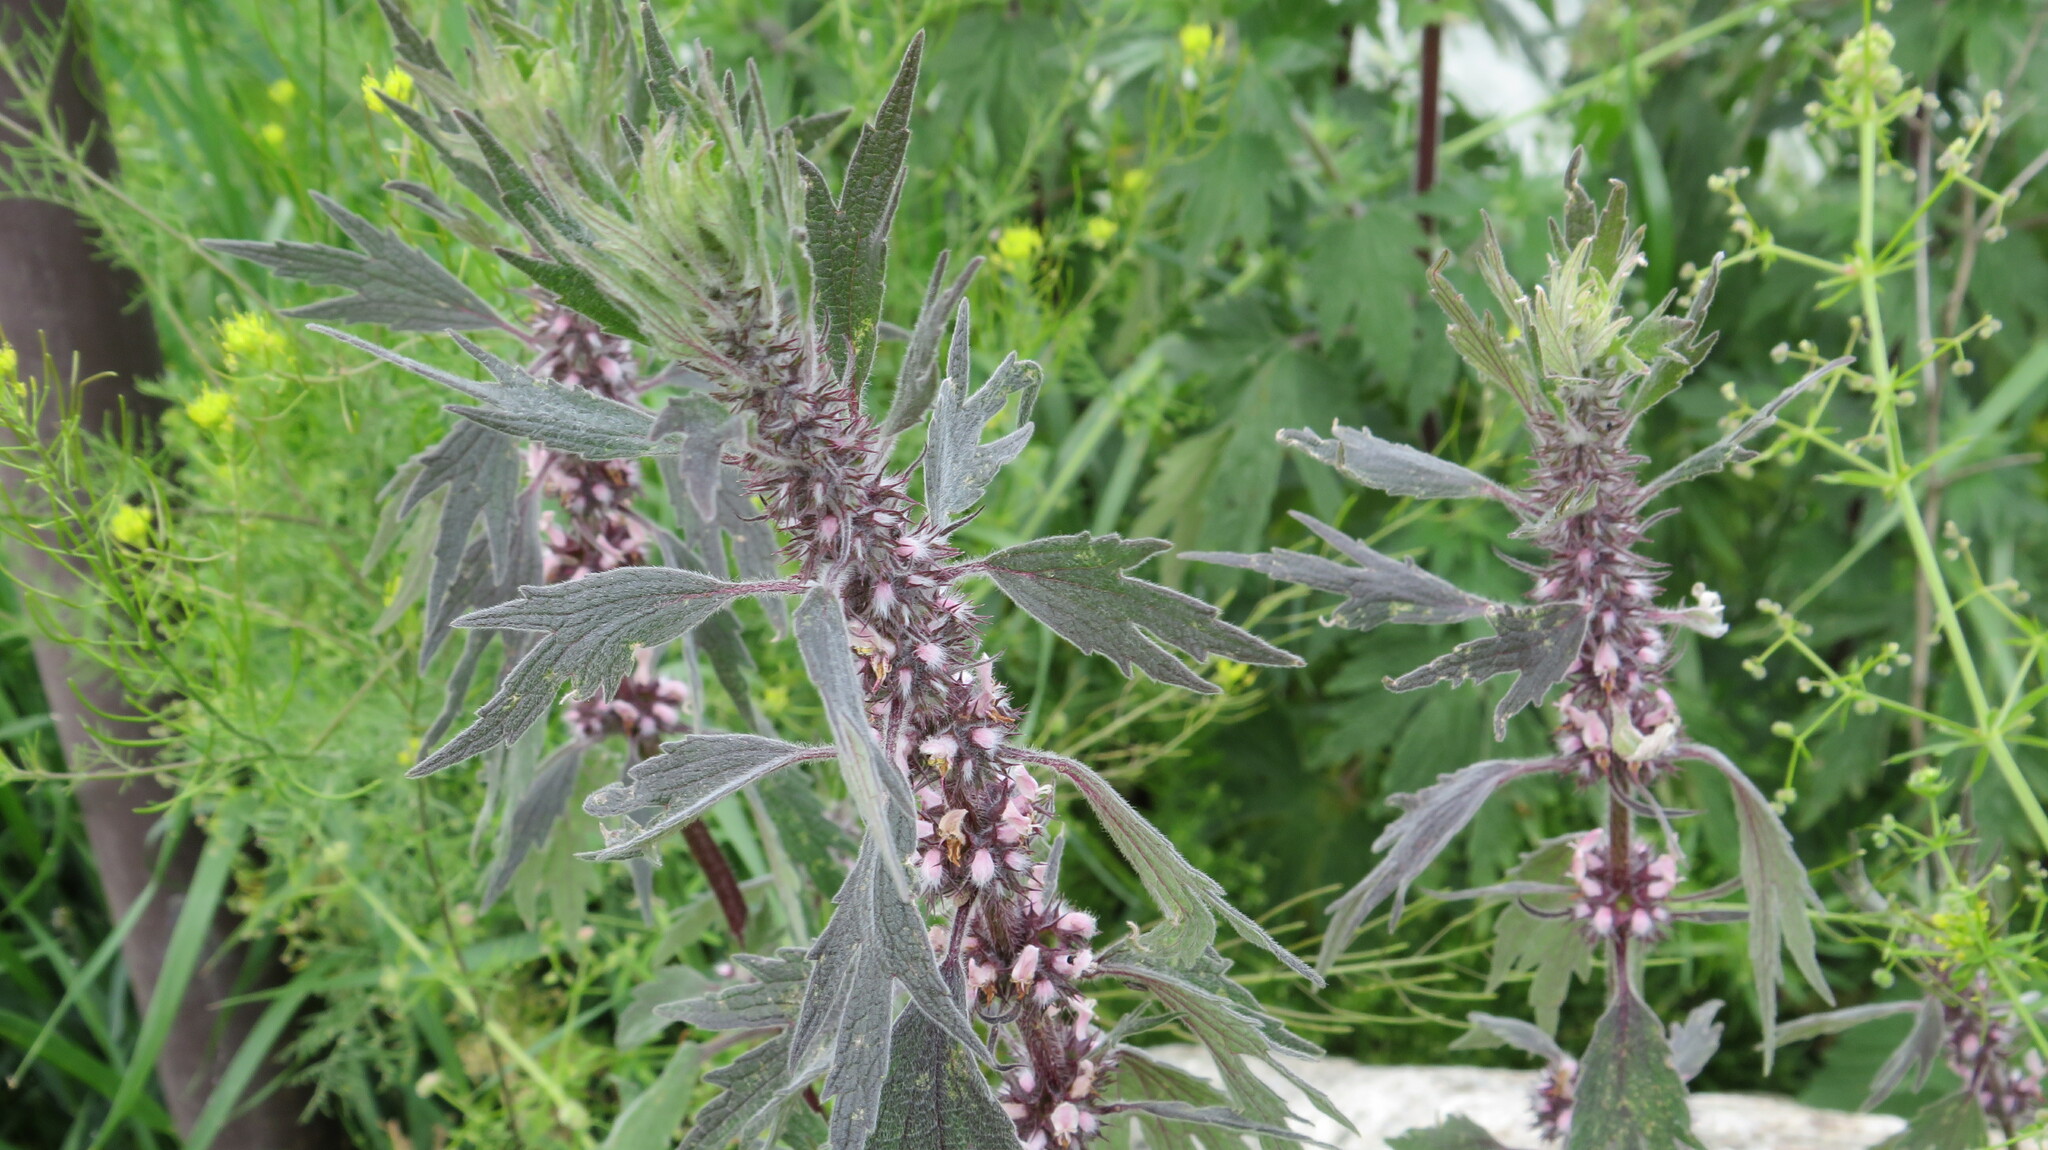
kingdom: Plantae
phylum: Tracheophyta
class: Magnoliopsida
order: Lamiales
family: Lamiaceae
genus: Leonurus
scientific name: Leonurus quinquelobatus
